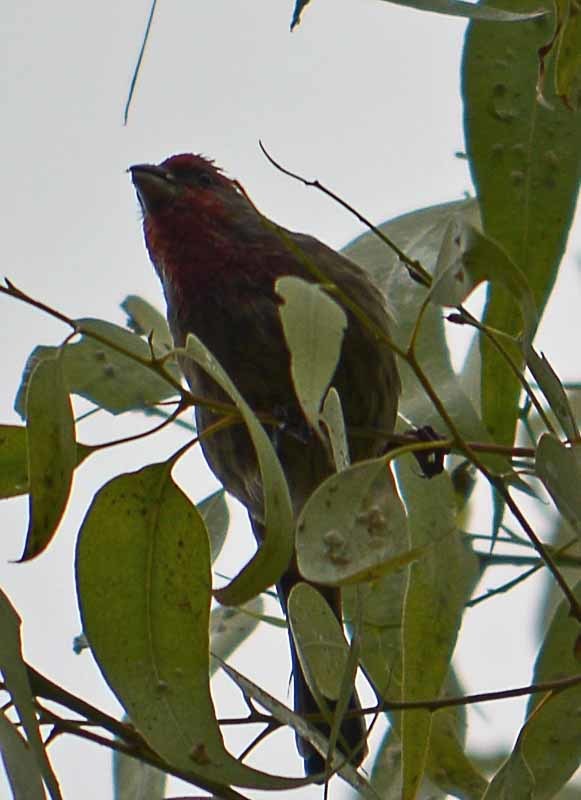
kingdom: Animalia
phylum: Chordata
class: Aves
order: Passeriformes
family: Fringillidae
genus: Haemorhous
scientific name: Haemorhous mexicanus
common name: House finch
